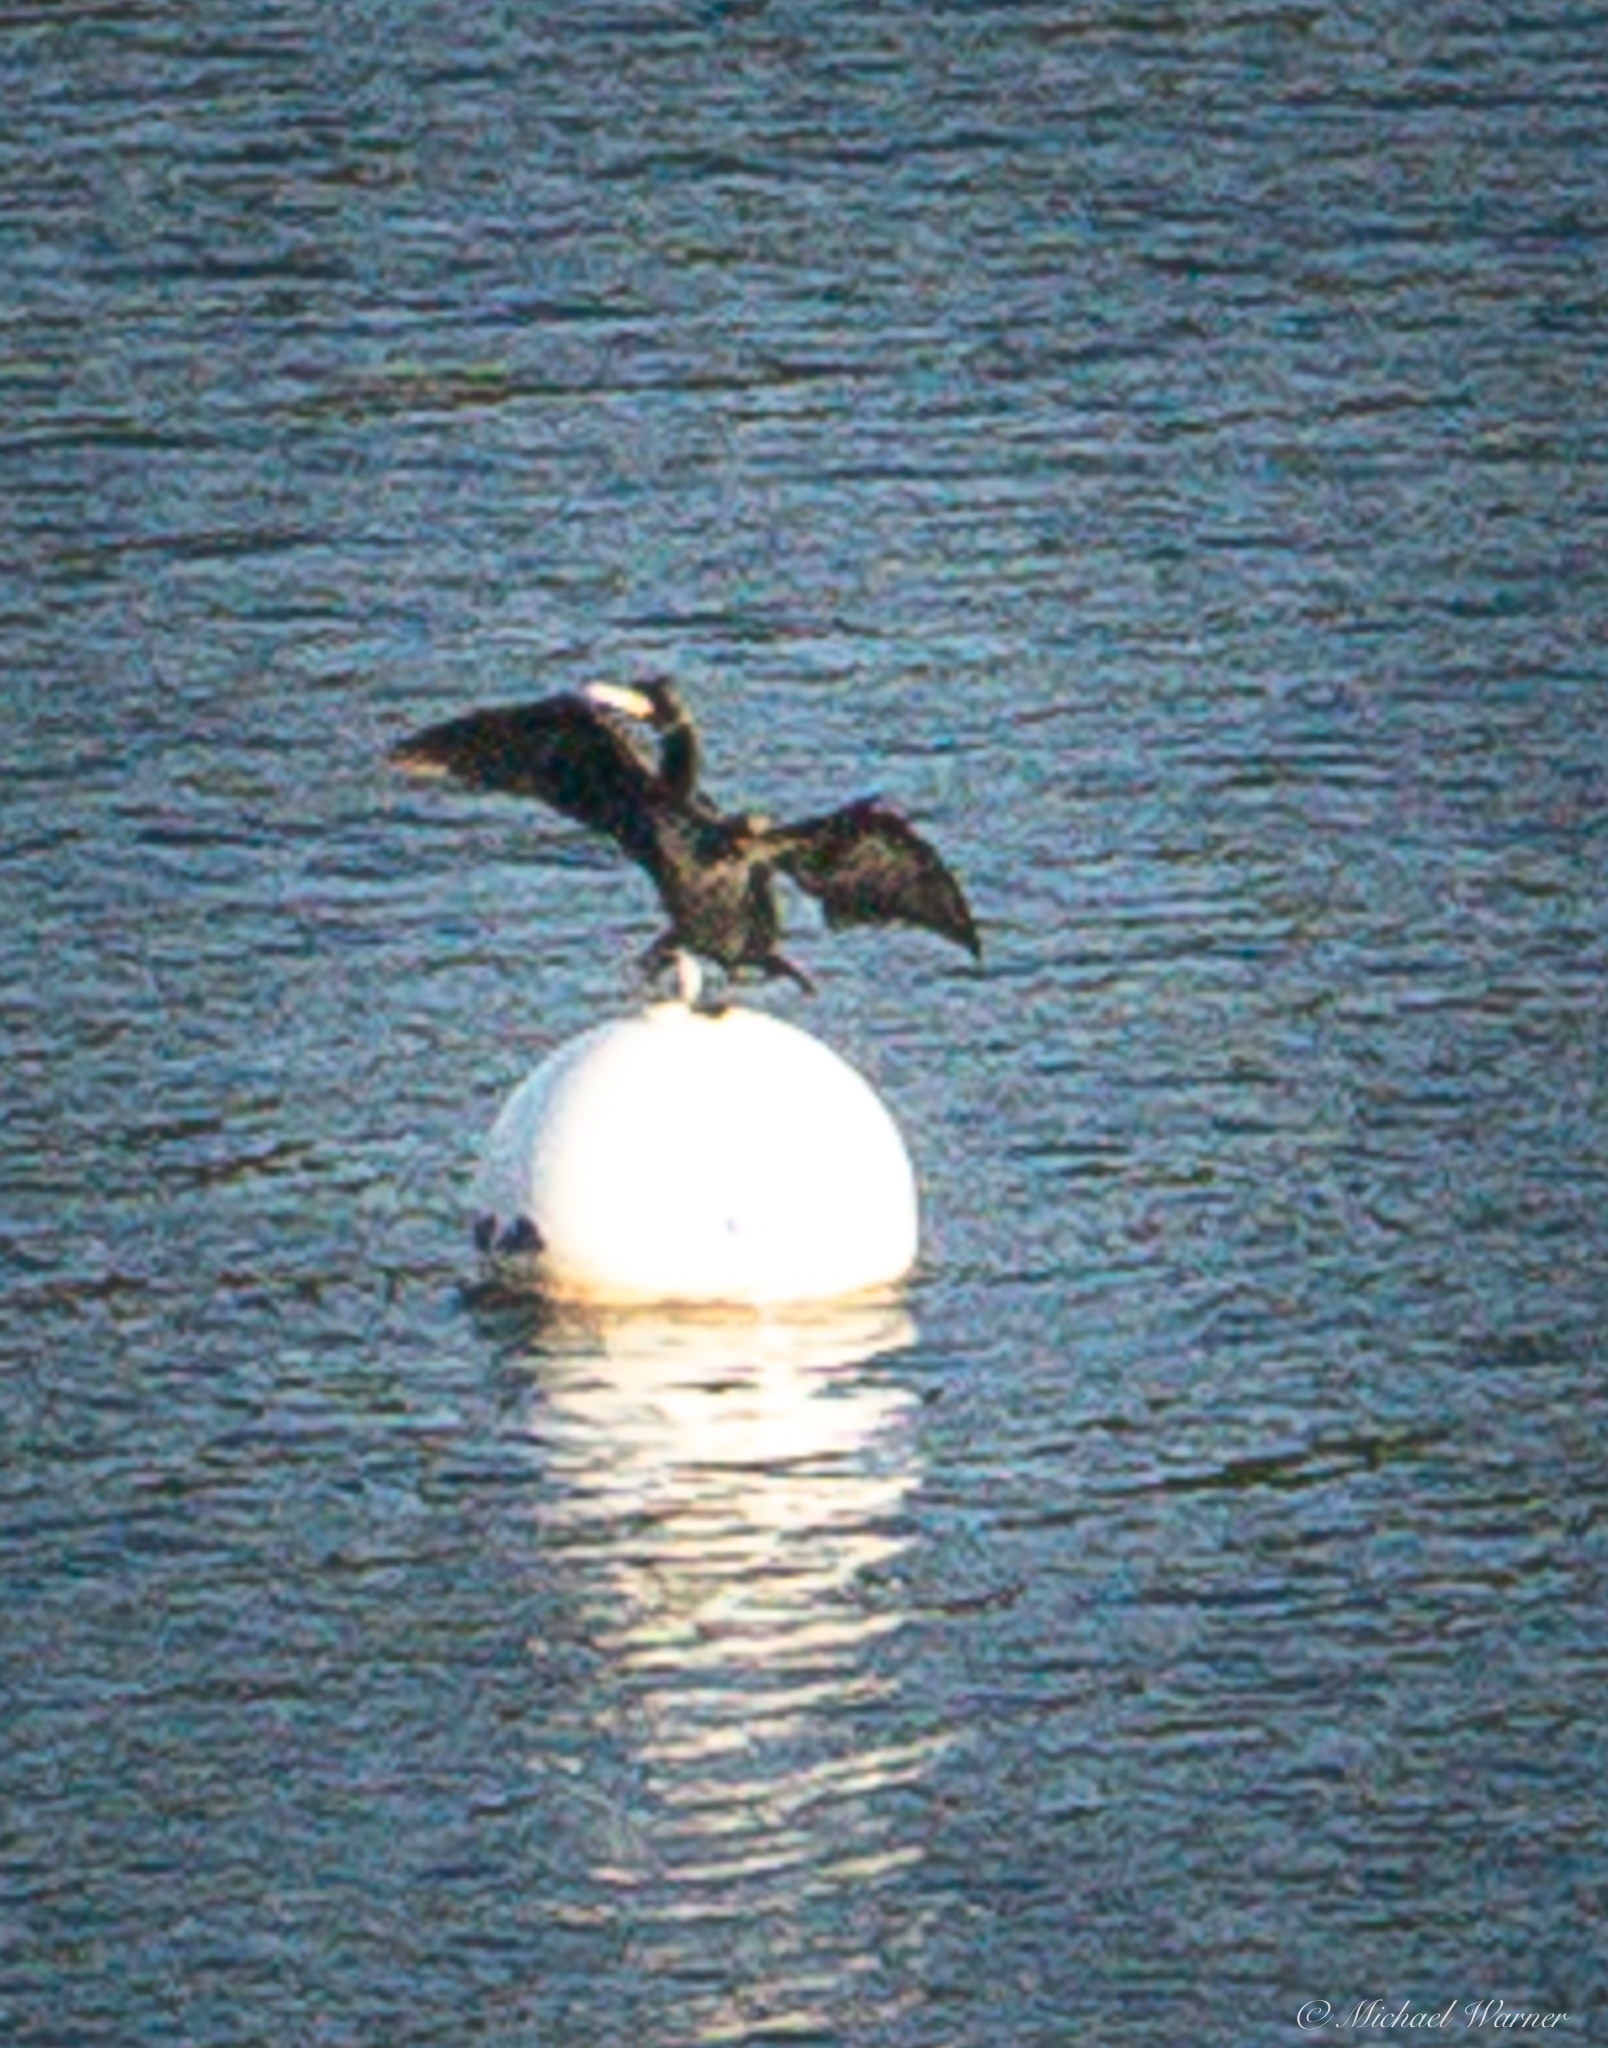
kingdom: Animalia
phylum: Chordata
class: Aves
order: Suliformes
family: Phalacrocoracidae
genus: Phalacrocorax
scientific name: Phalacrocorax auritus
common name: Double-crested cormorant
